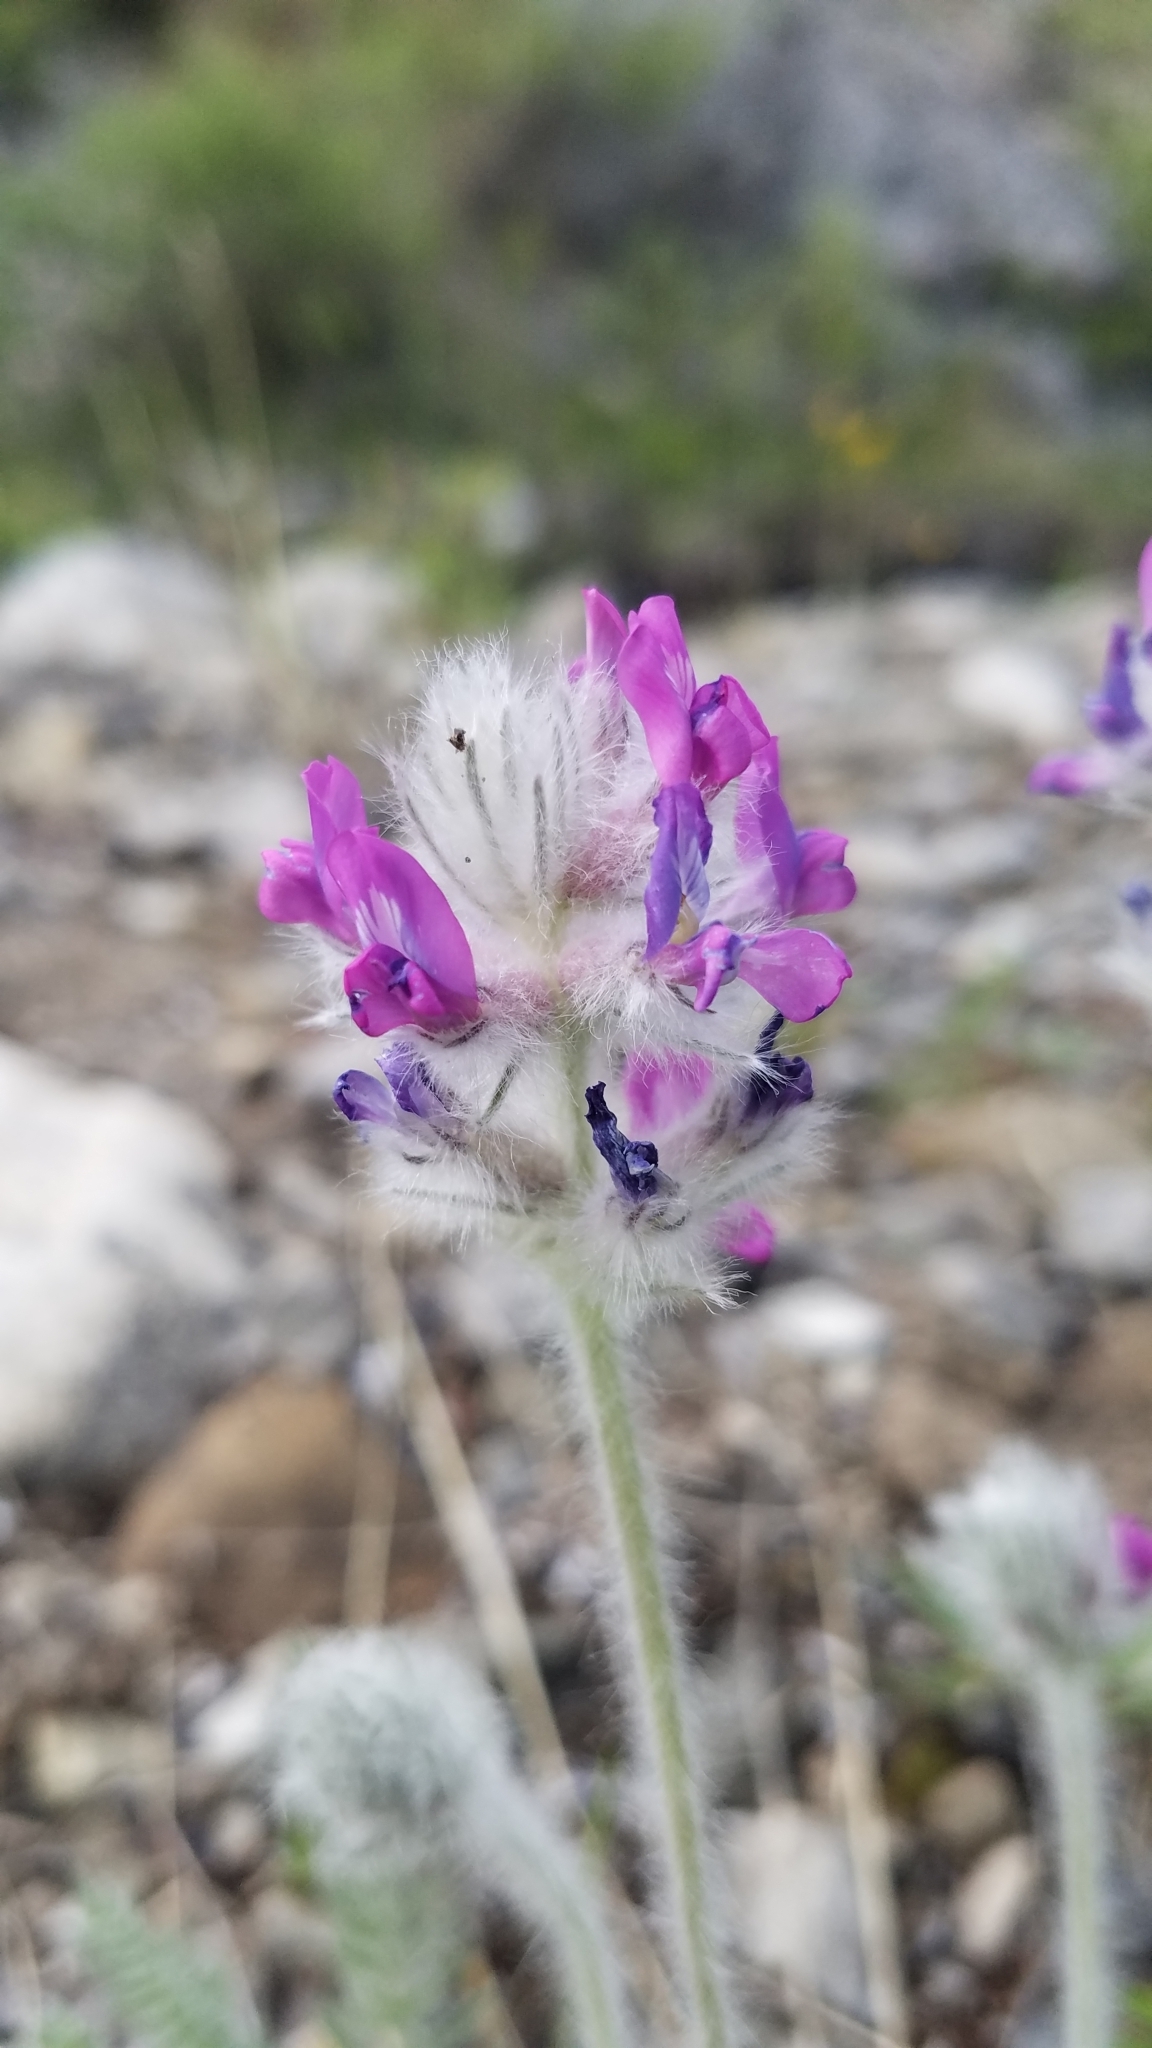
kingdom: Plantae
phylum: Tracheophyta
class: Magnoliopsida
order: Fabales
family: Fabaceae
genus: Oxytropis
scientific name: Oxytropis splendens
